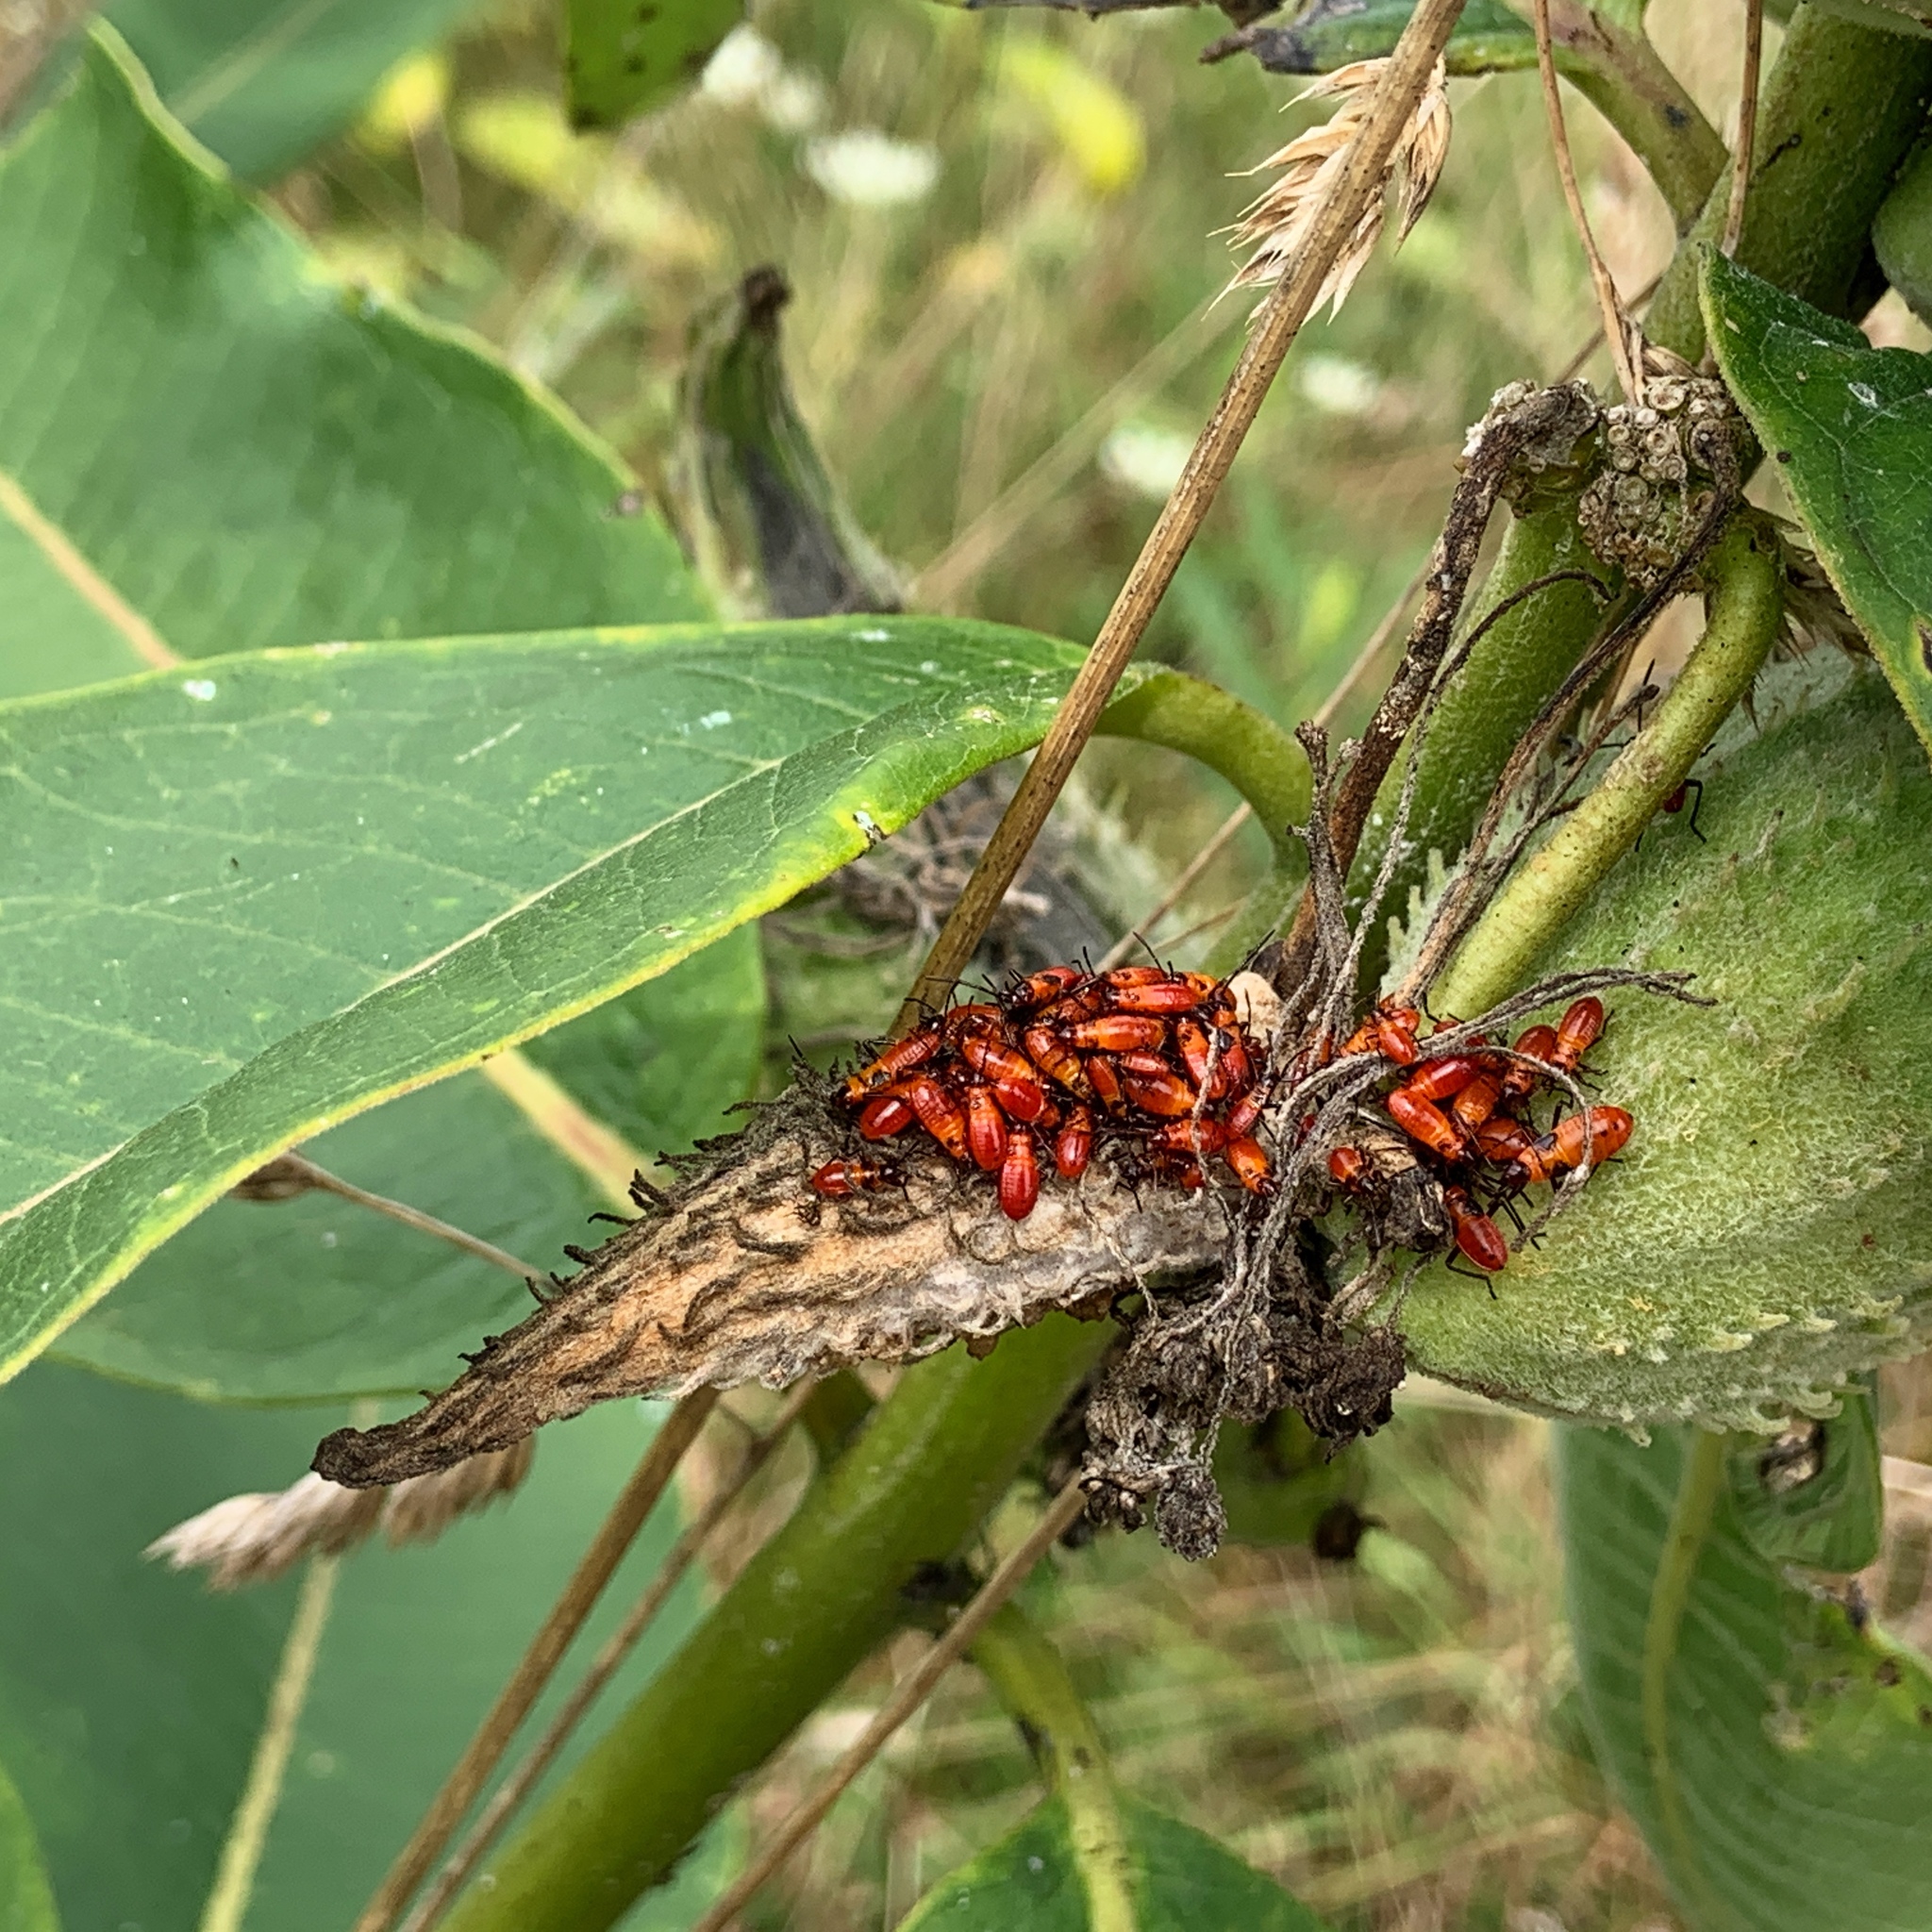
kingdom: Animalia
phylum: Arthropoda
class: Insecta
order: Hemiptera
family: Lygaeidae
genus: Oncopeltus
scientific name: Oncopeltus fasciatus
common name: Large milkweed bug
